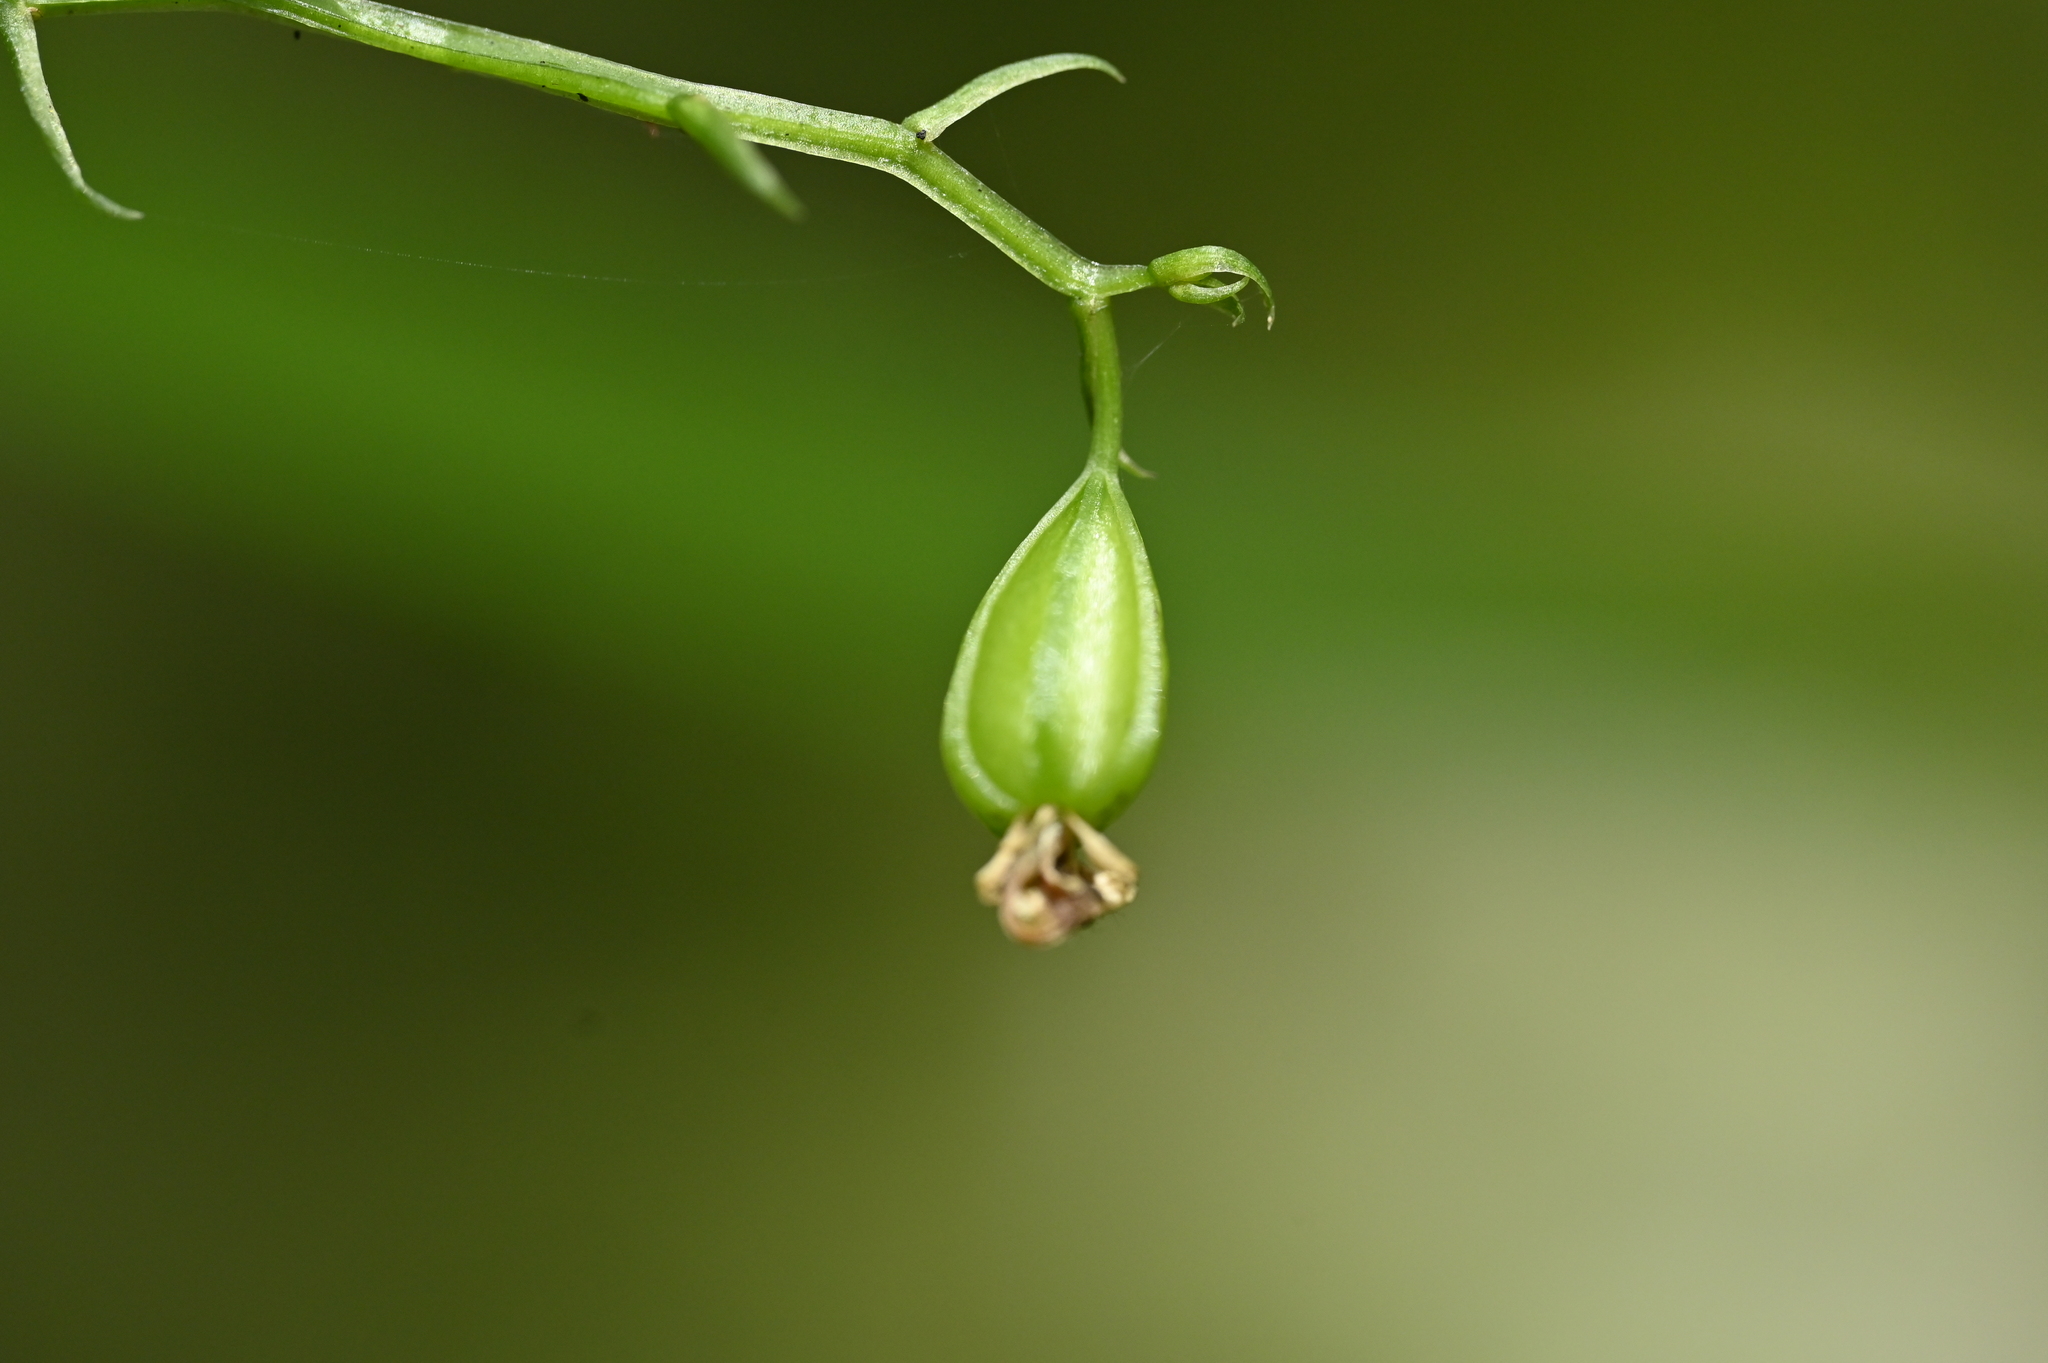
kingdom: Plantae
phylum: Tracheophyta
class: Liliopsida
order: Asparagales
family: Orchidaceae
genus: Liparis
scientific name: Liparis nakaharae
